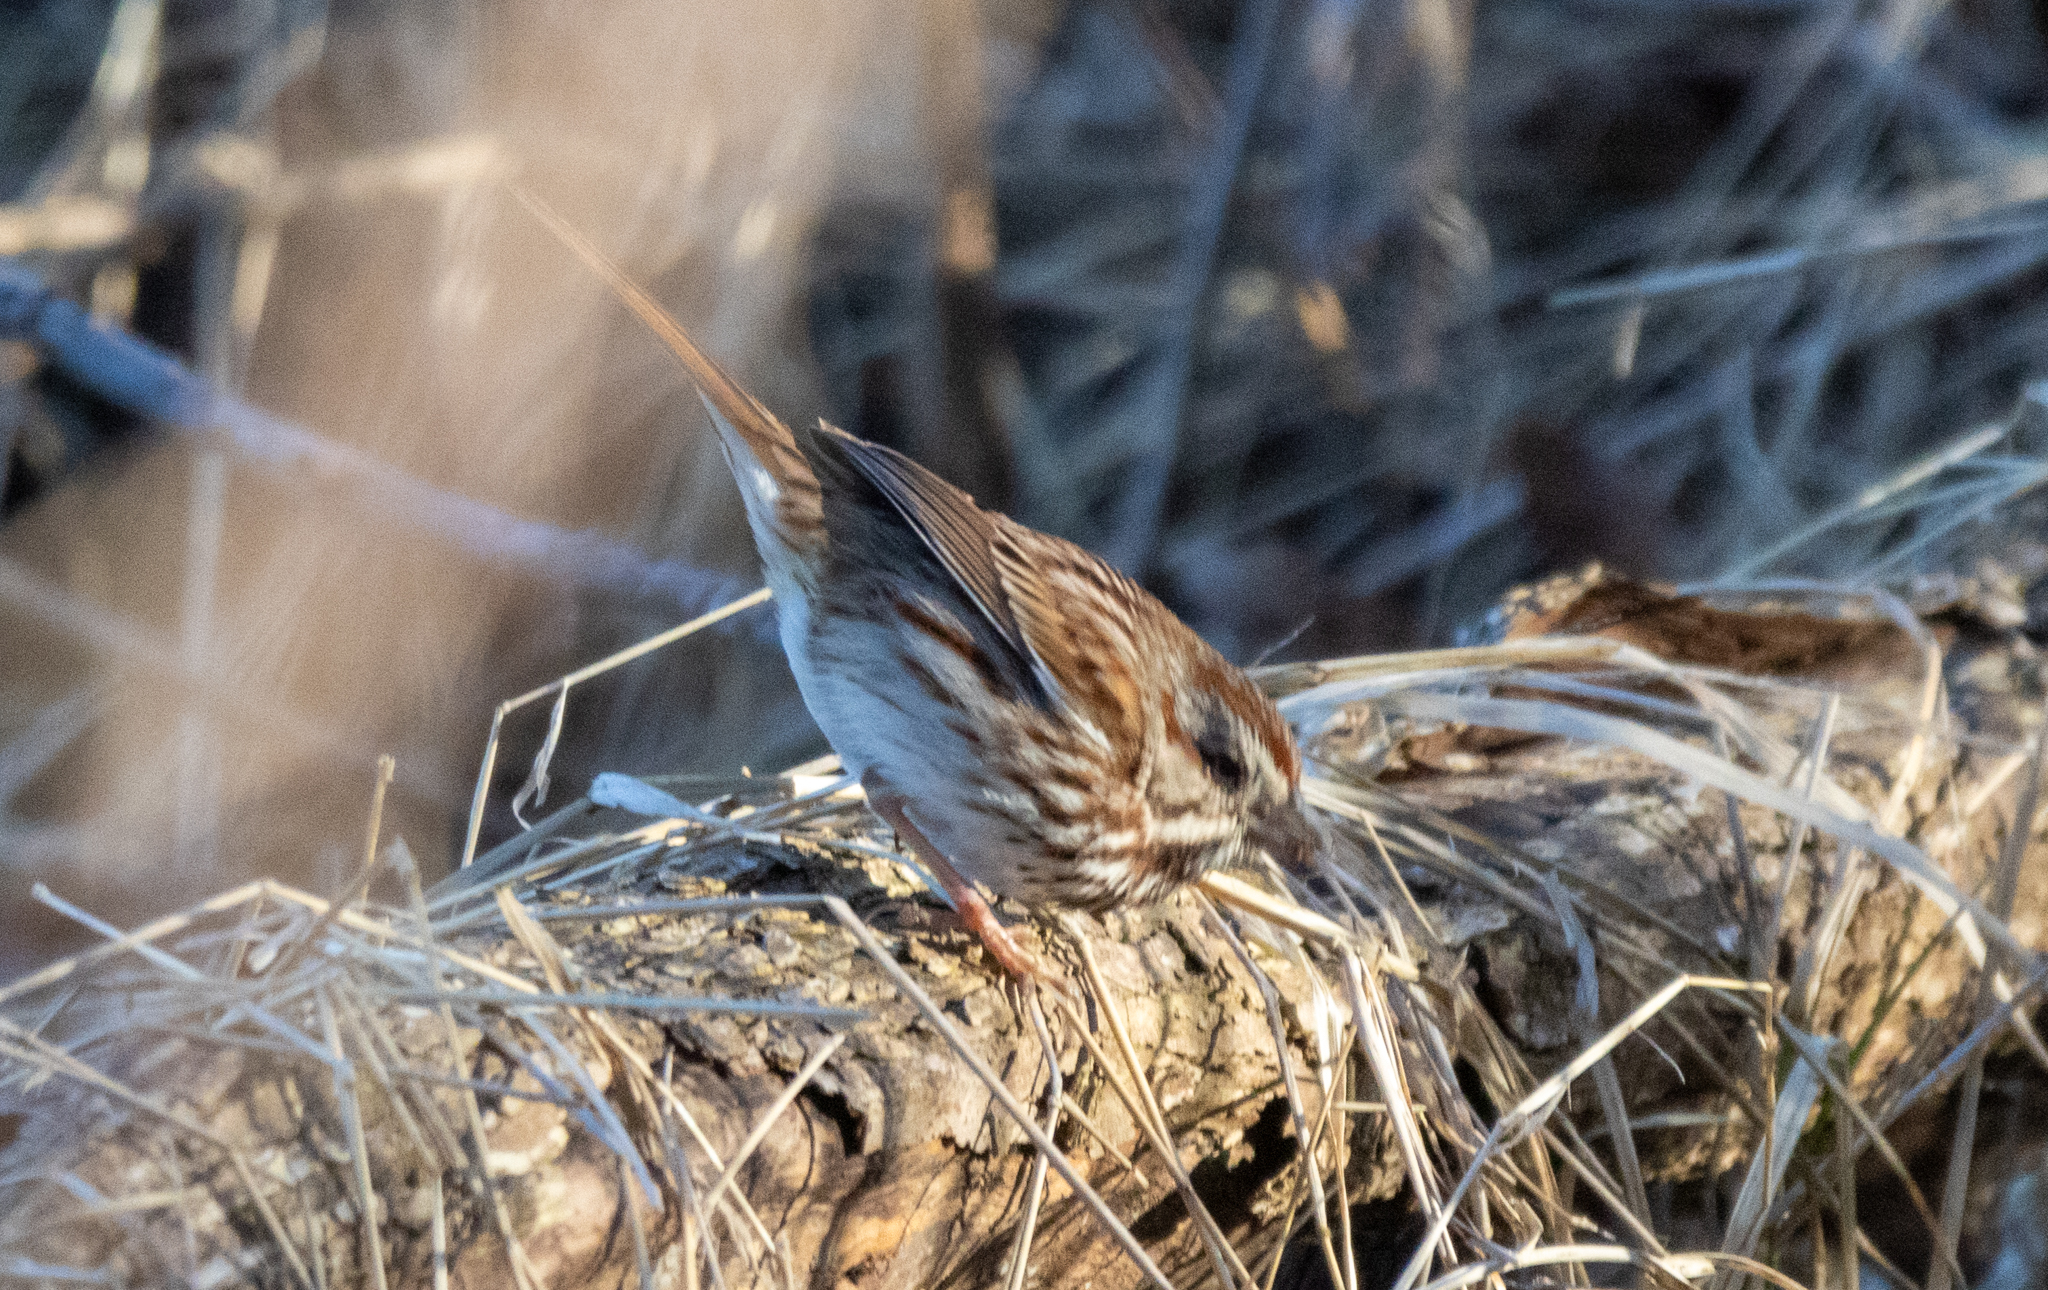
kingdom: Animalia
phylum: Chordata
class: Aves
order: Passeriformes
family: Passerellidae
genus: Melospiza
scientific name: Melospiza melodia
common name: Song sparrow
